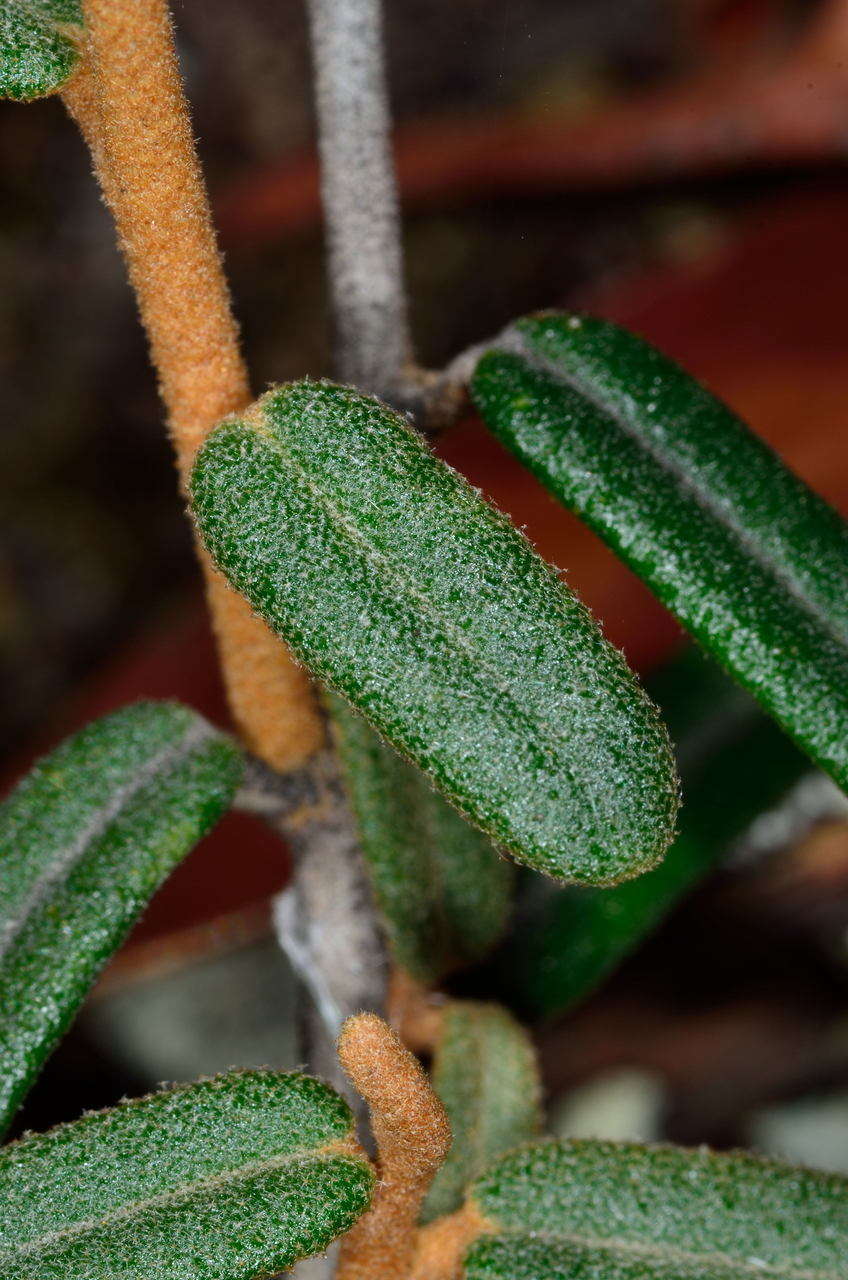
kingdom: Plantae
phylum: Tracheophyta
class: Magnoliopsida
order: Apiales
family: Araliaceae
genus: Astrotricha
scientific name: Astrotricha ledifolia
